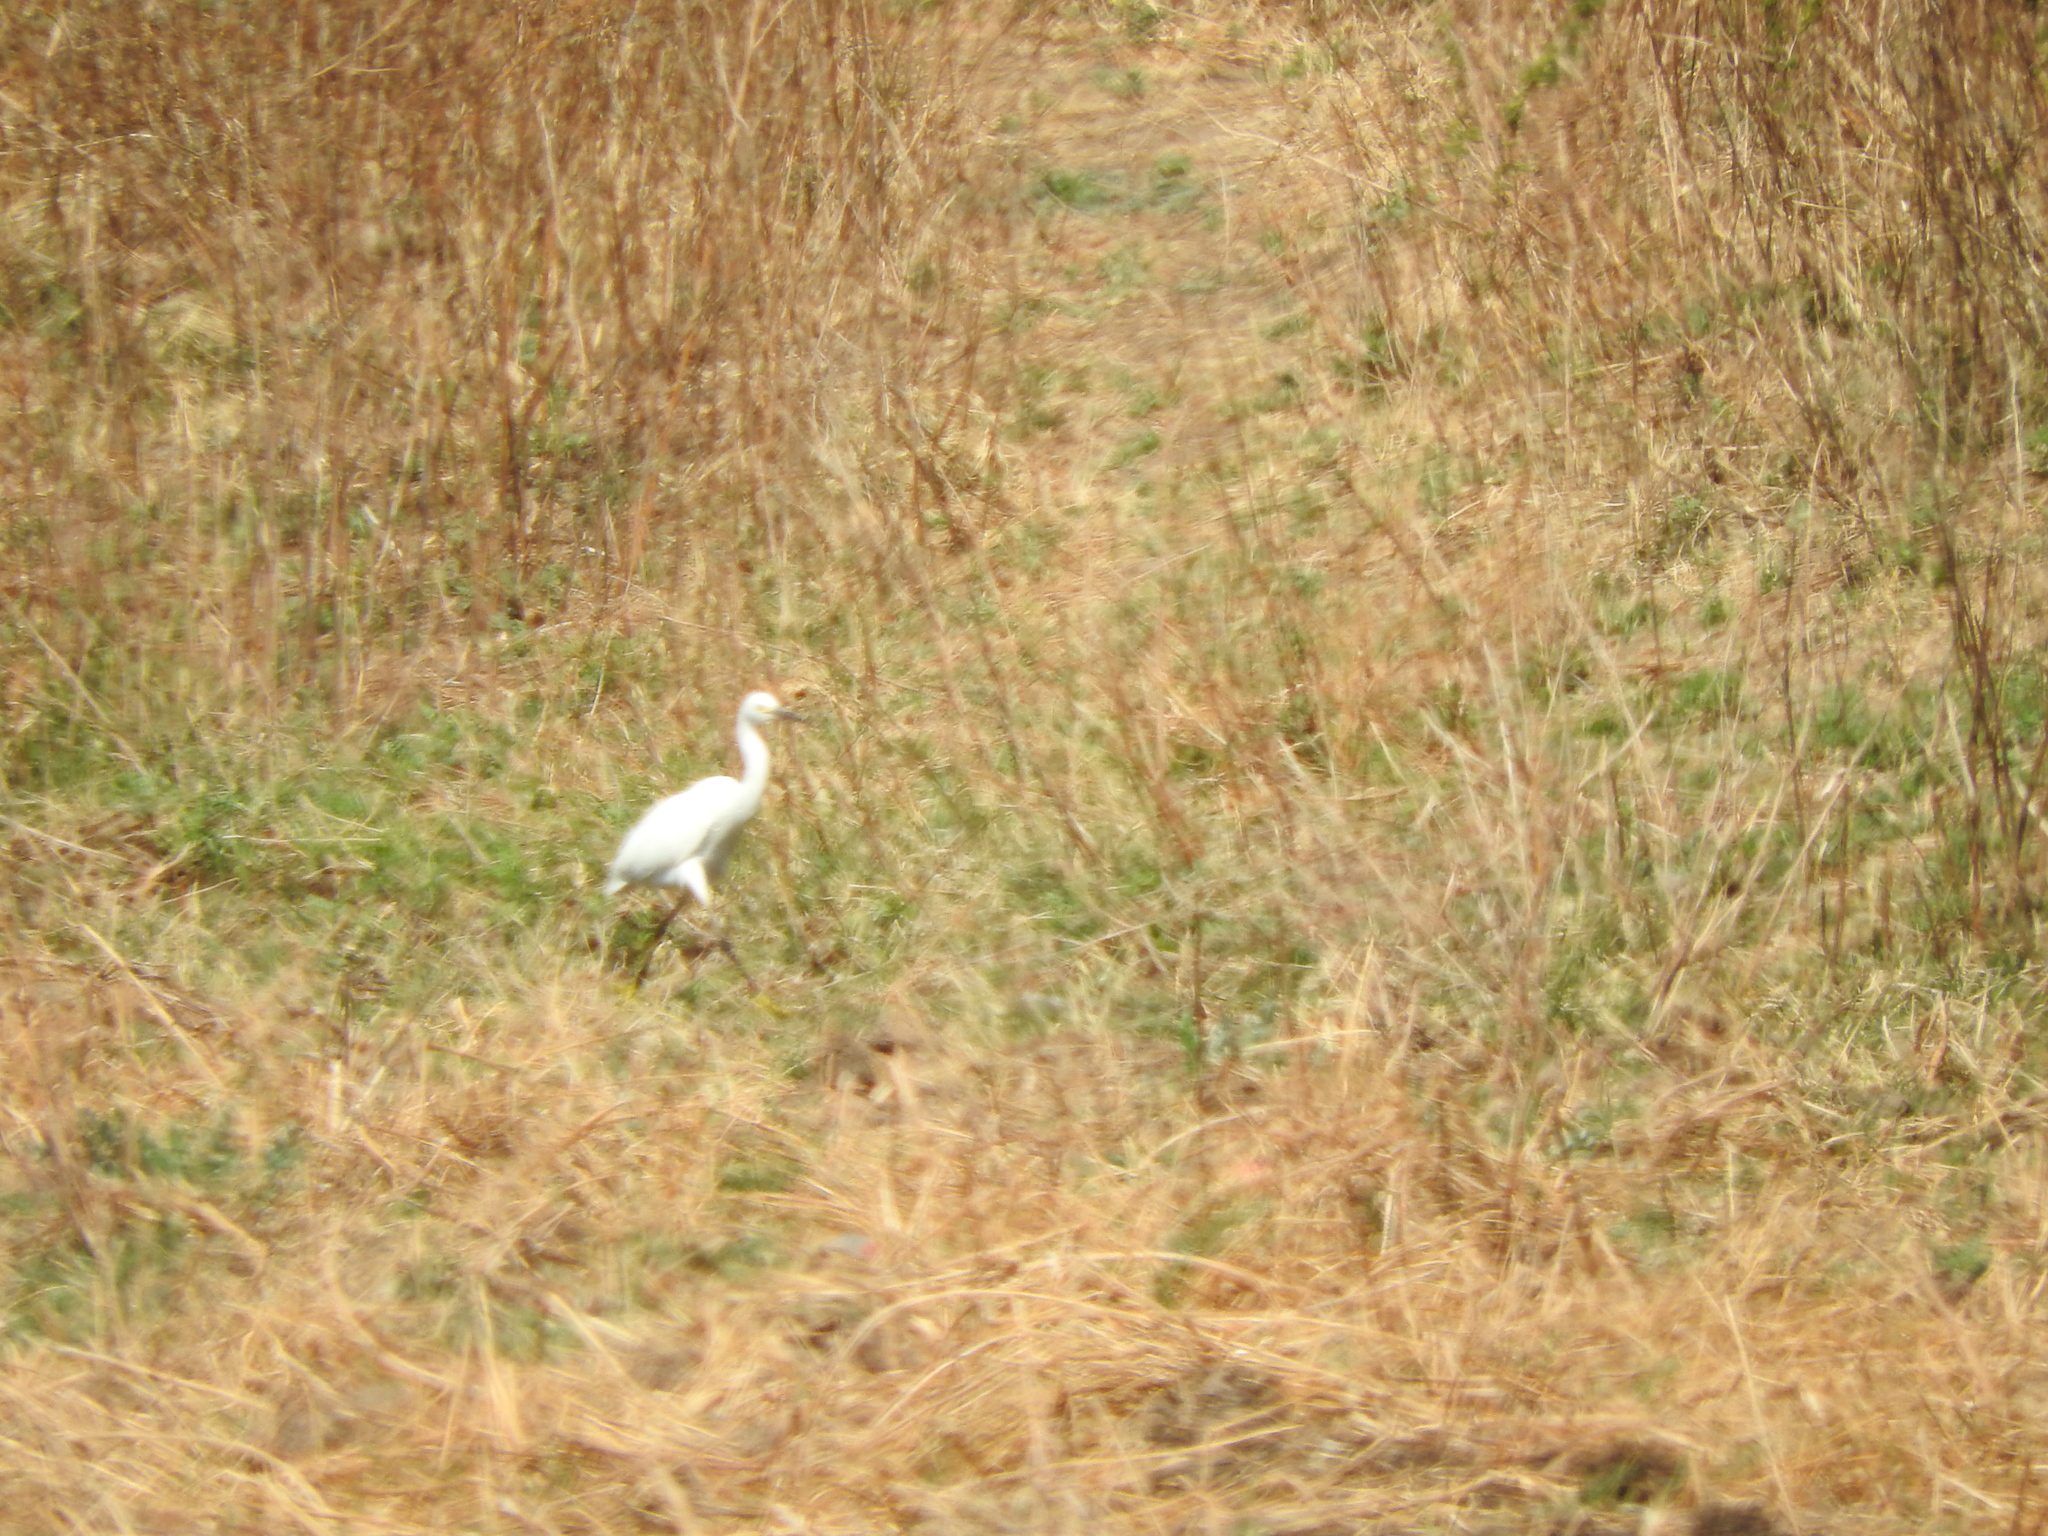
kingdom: Animalia
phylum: Chordata
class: Aves
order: Pelecaniformes
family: Ardeidae
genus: Egretta
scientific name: Egretta thula
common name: Snowy egret
